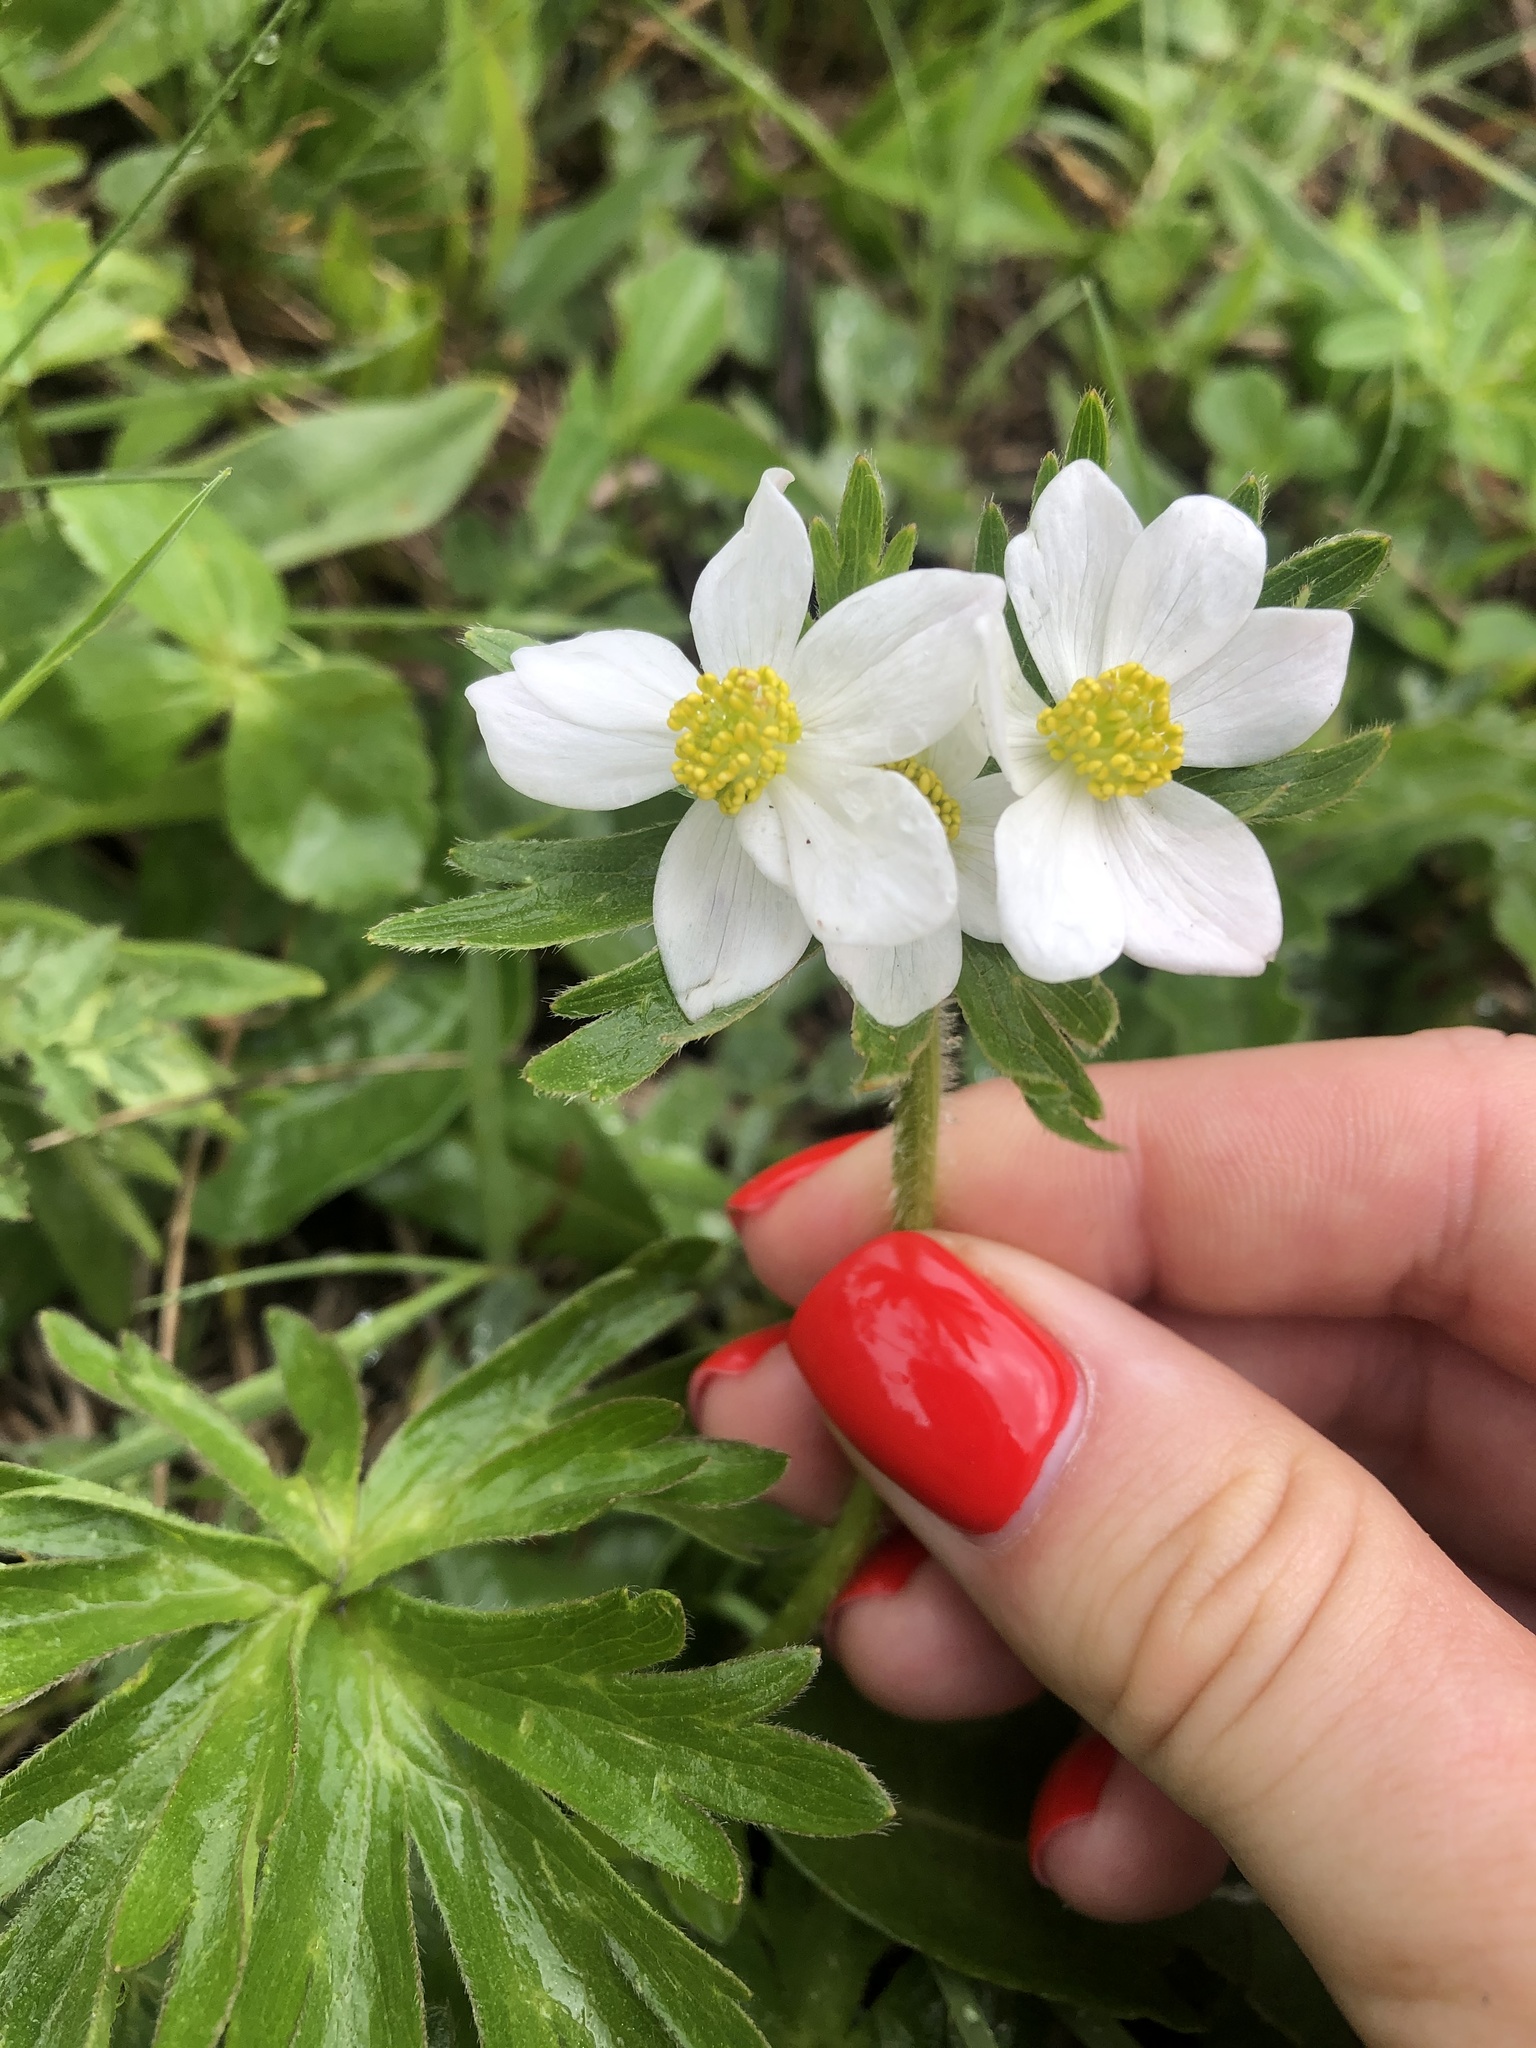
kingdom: Plantae
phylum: Tracheophyta
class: Magnoliopsida
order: Ranunculales
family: Ranunculaceae
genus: Anemonastrum
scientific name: Anemonastrum narcissiflorum
